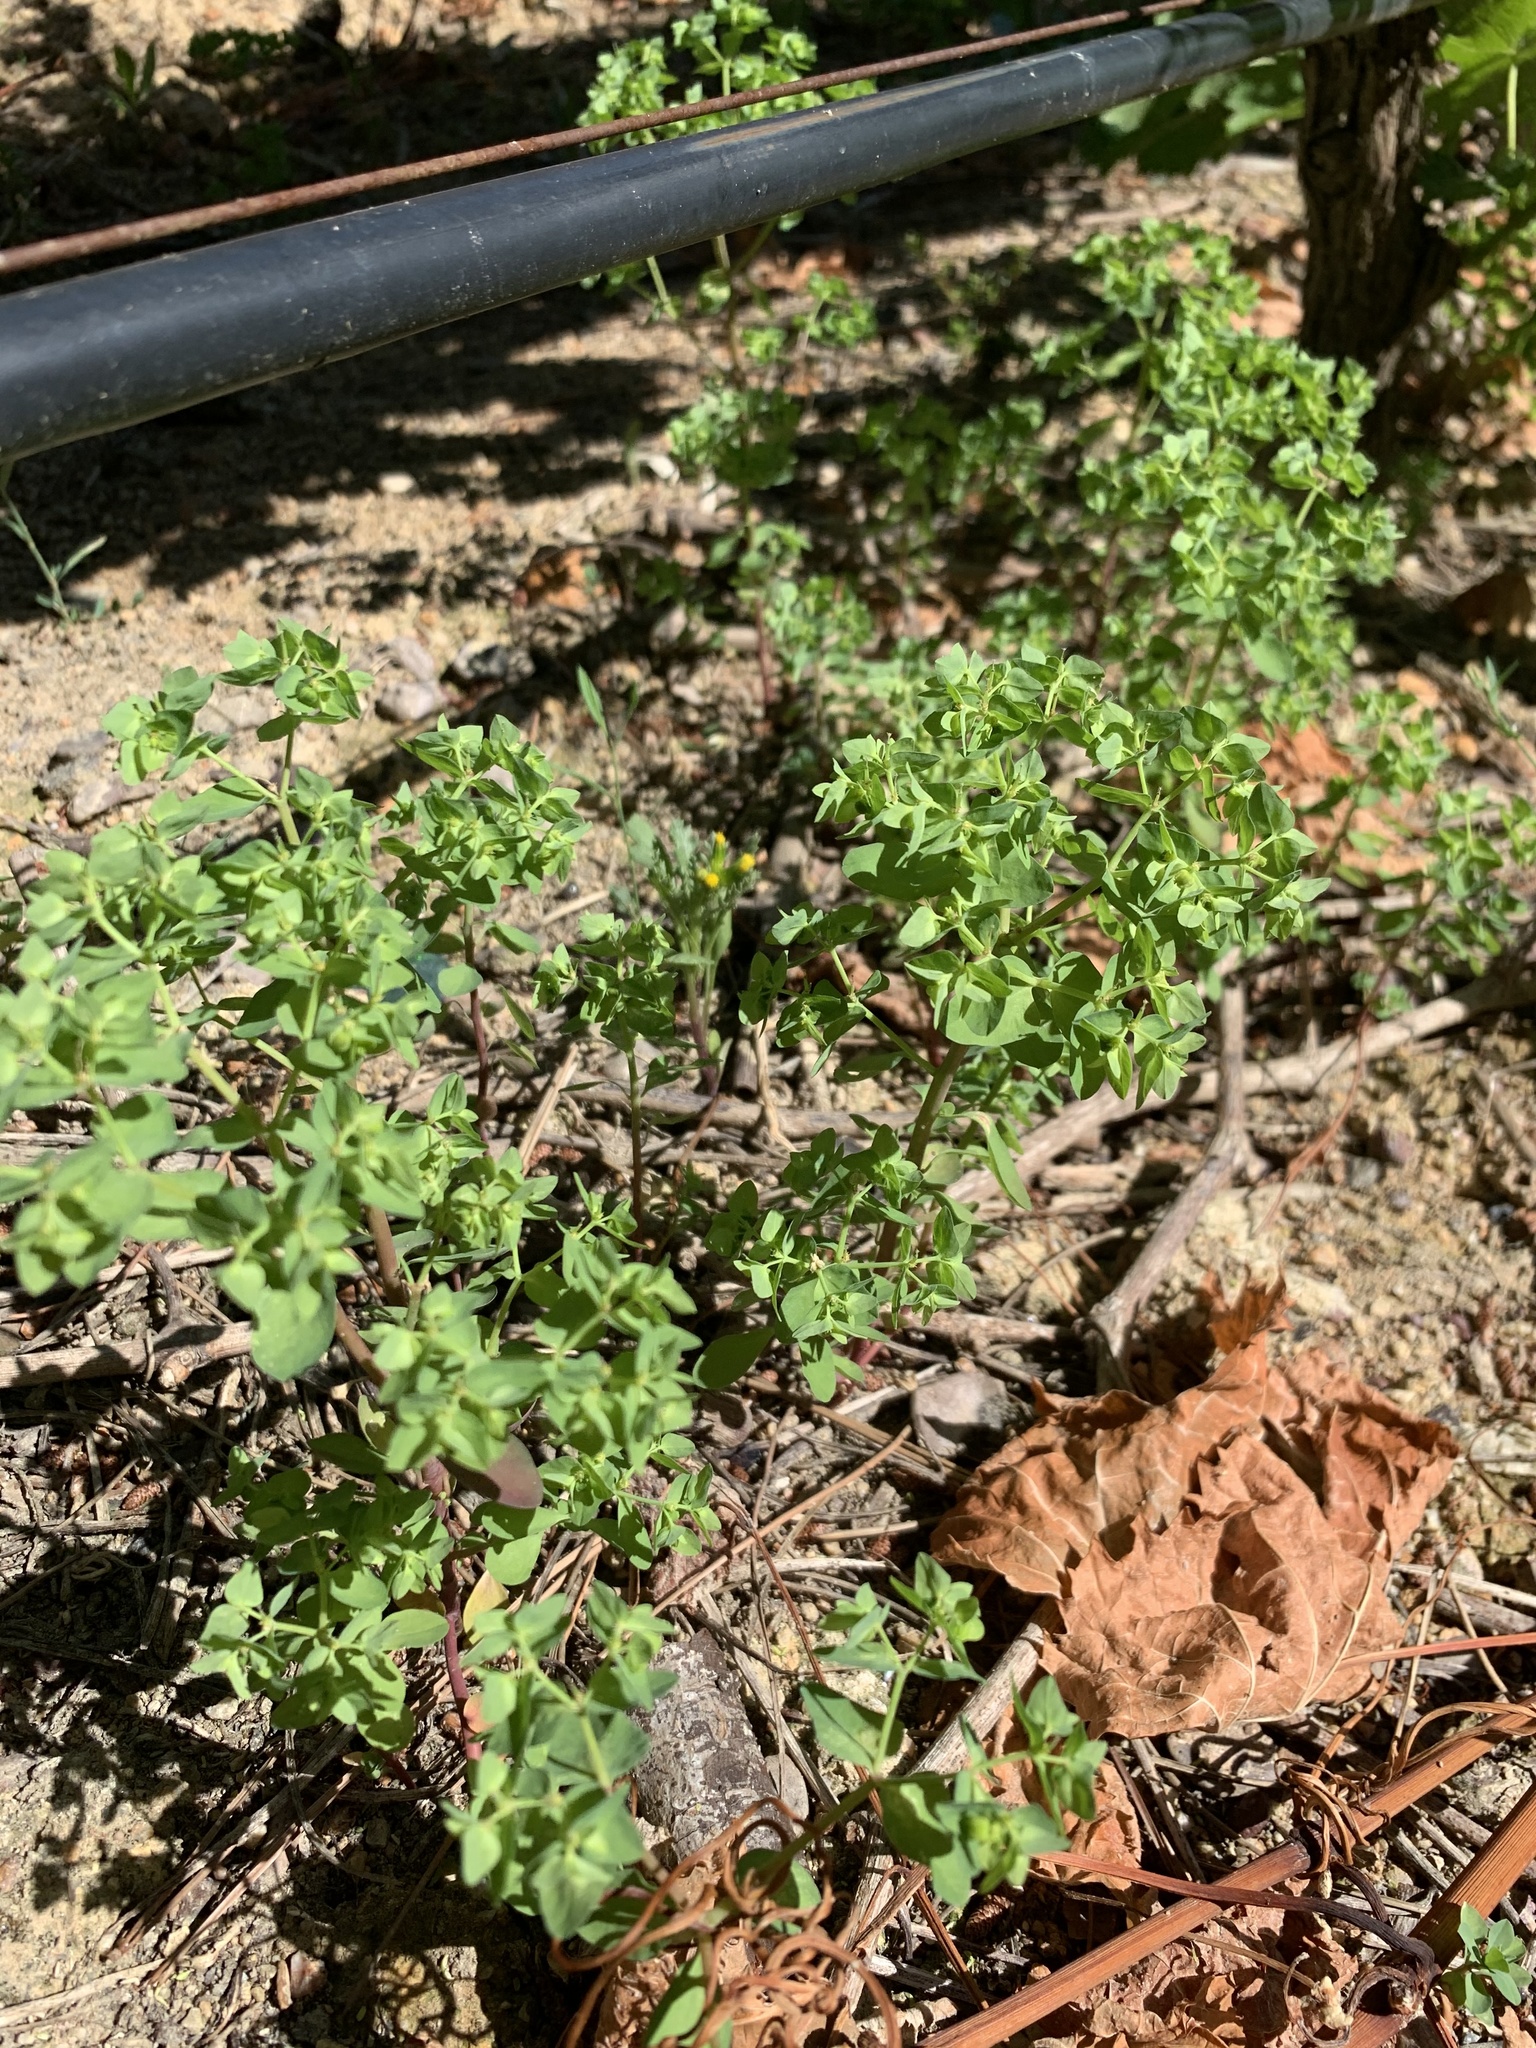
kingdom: Plantae
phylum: Tracheophyta
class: Magnoliopsida
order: Malpighiales
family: Euphorbiaceae
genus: Euphorbia
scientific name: Euphorbia peplus
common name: Petty spurge
